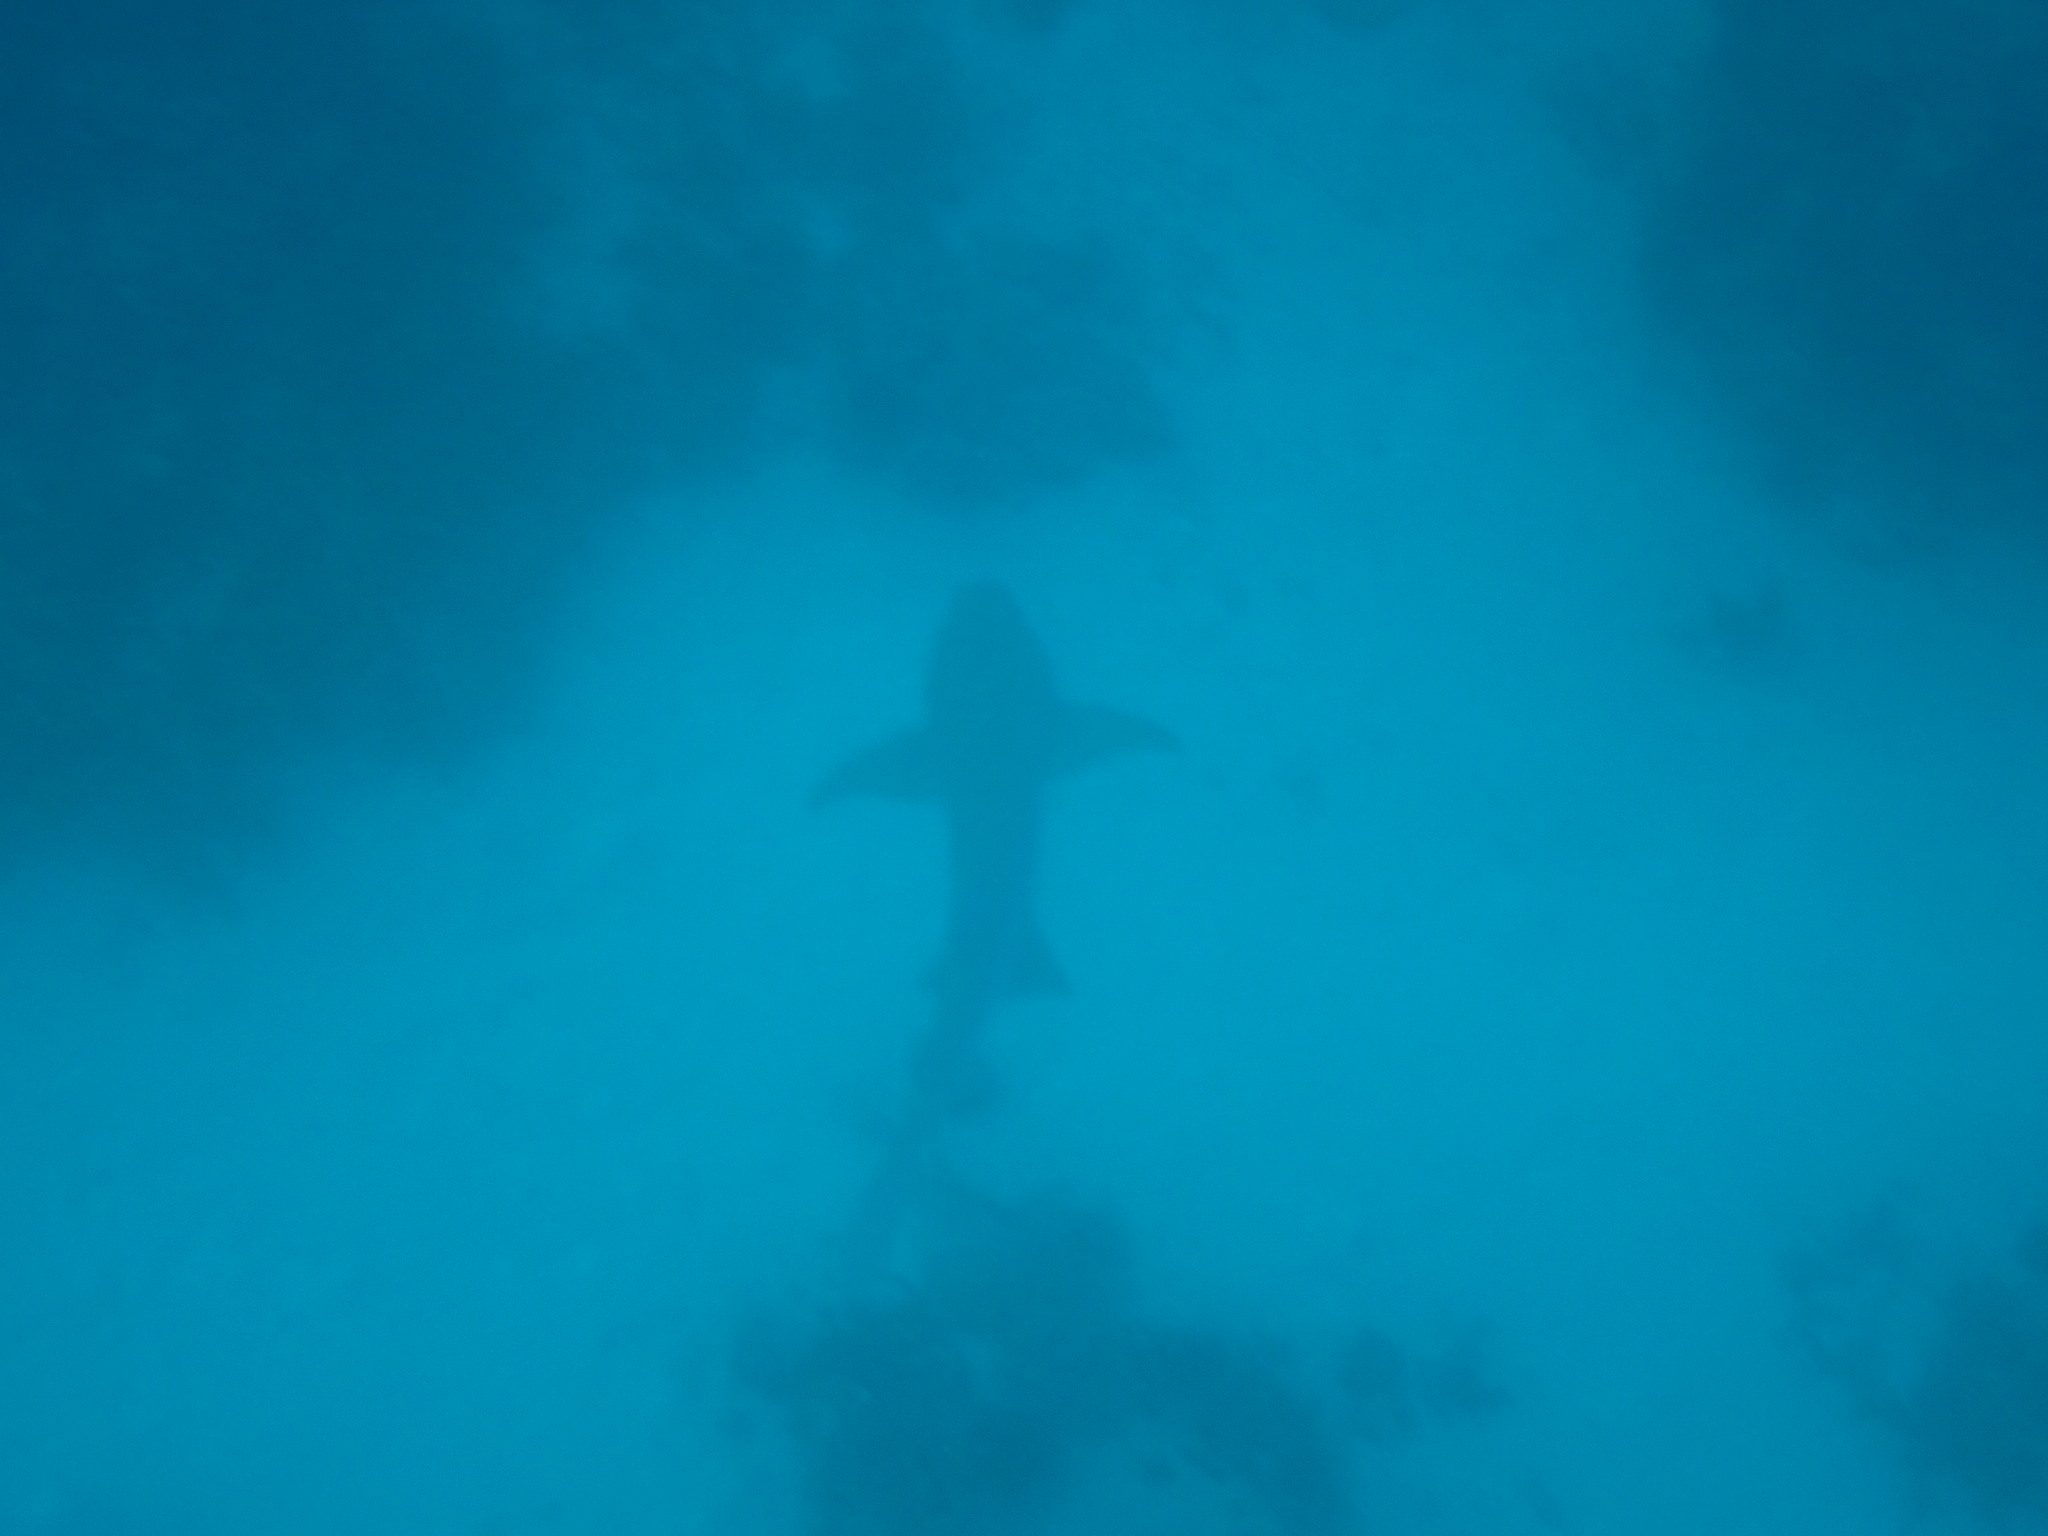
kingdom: Animalia
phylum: Chordata
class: Elasmobranchii
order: Orectolobiformes
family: Ginglymostomatidae
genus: Nebrius
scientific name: Nebrius ferrugineus
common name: Tawny nurse shark
